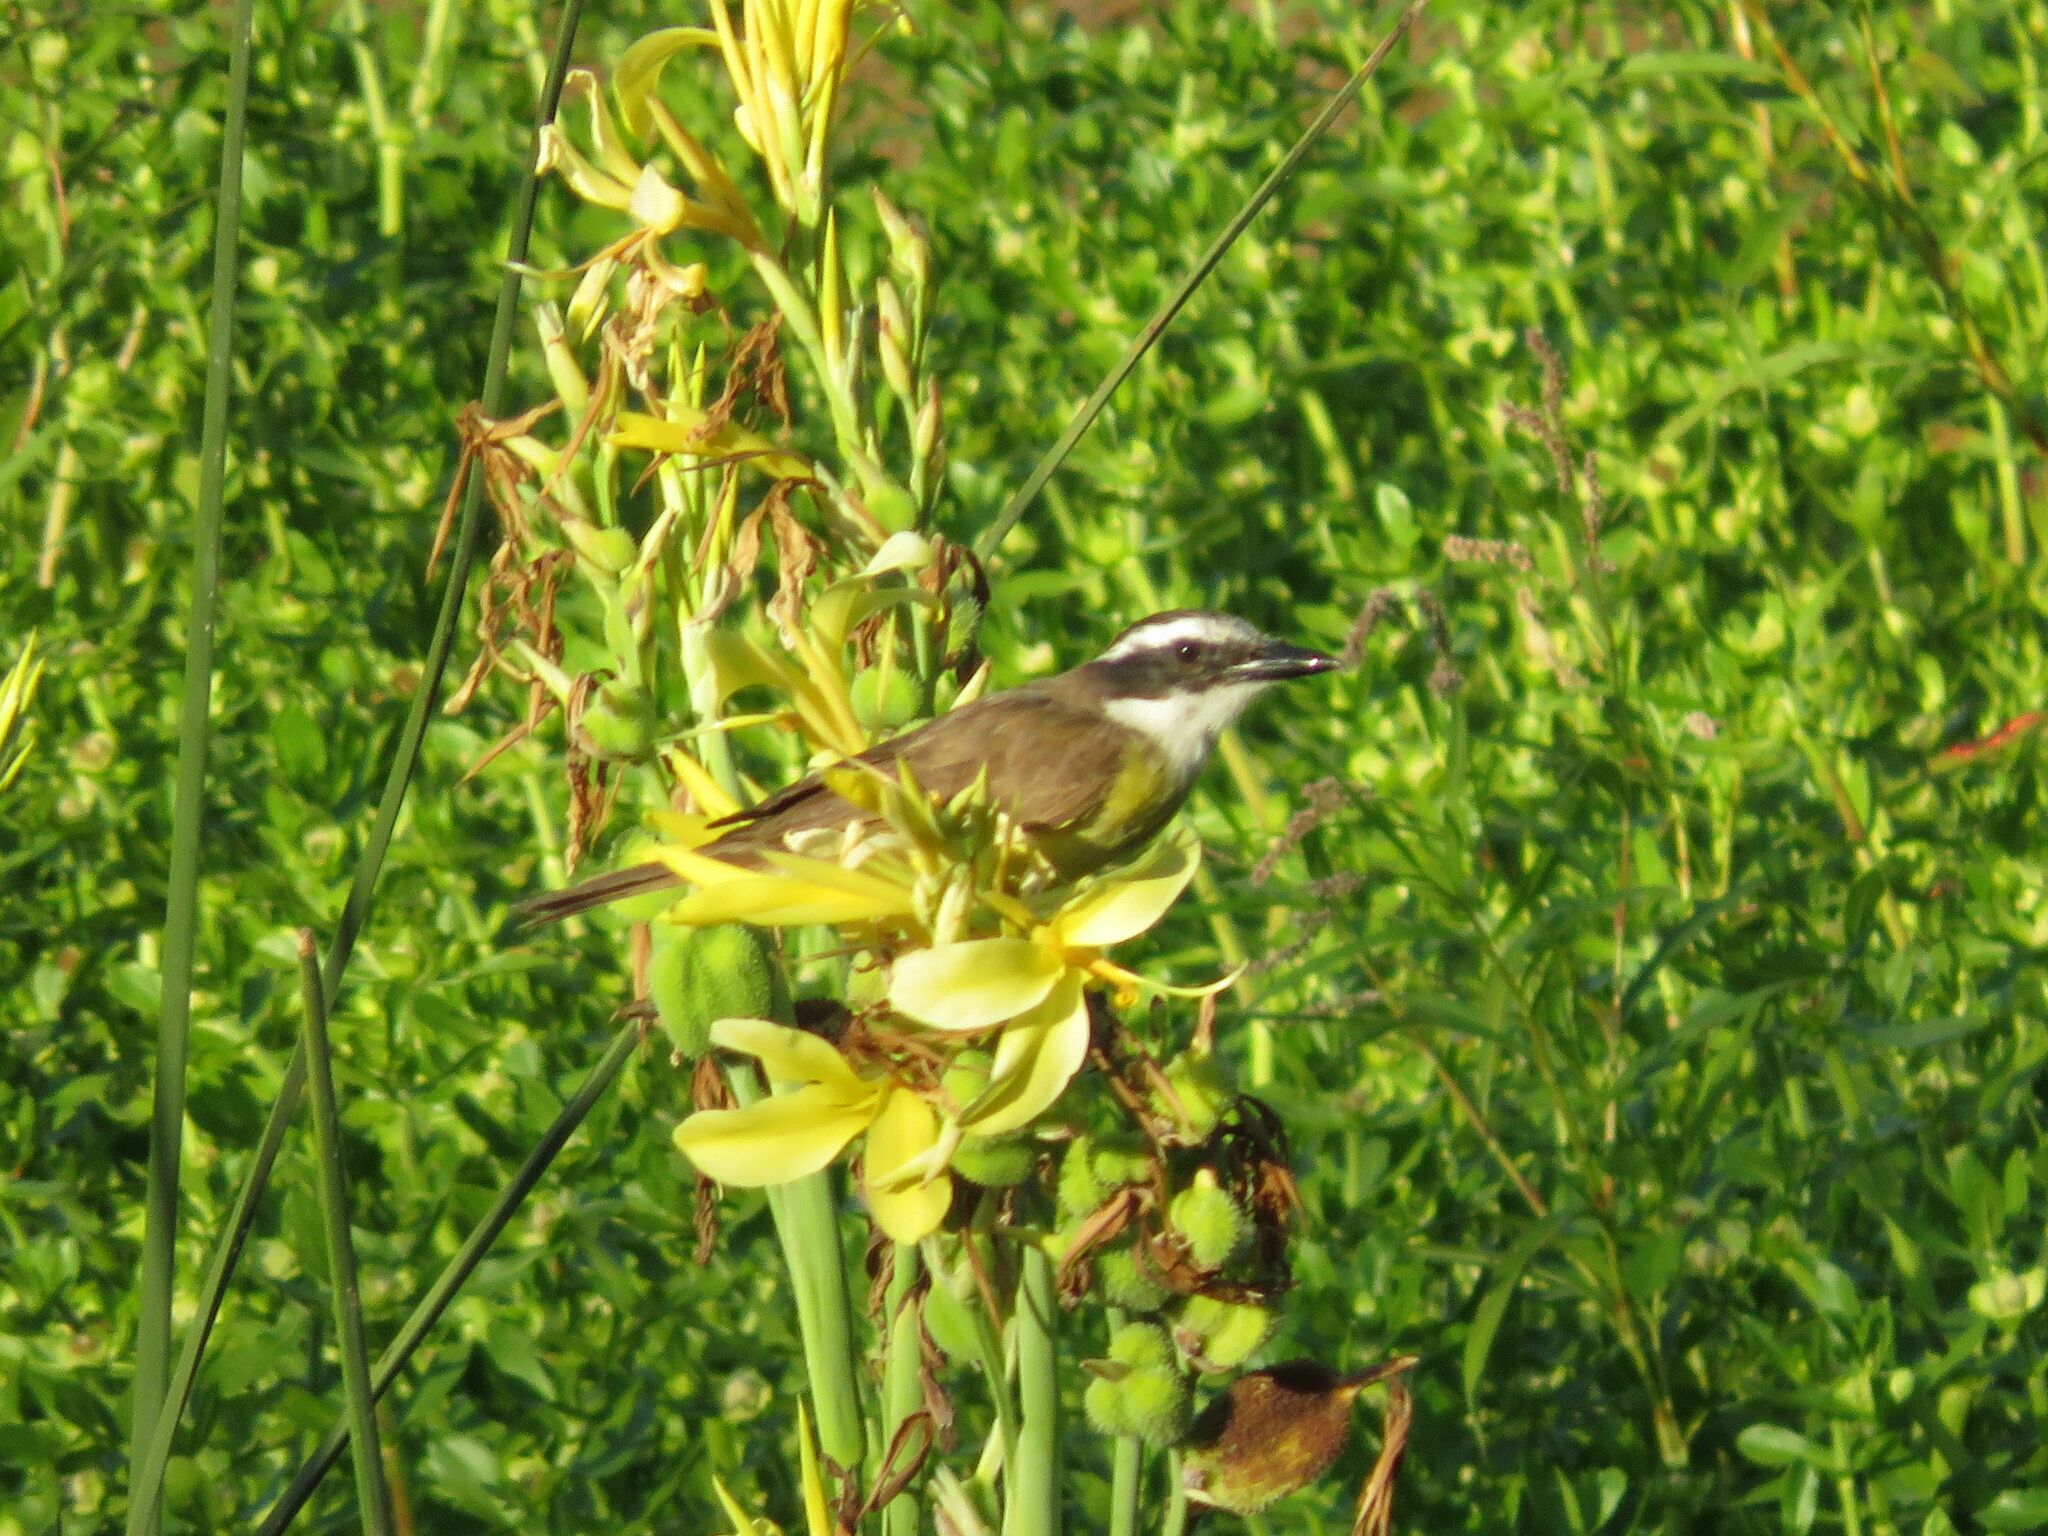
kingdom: Animalia
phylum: Chordata
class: Aves
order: Passeriformes
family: Tyrannidae
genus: Pitangus
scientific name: Pitangus sulphuratus
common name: Great kiskadee
